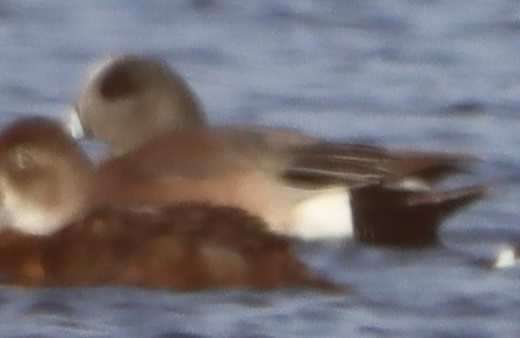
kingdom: Animalia
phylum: Chordata
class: Aves
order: Anseriformes
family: Anatidae
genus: Mareca
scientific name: Mareca americana
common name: American wigeon
